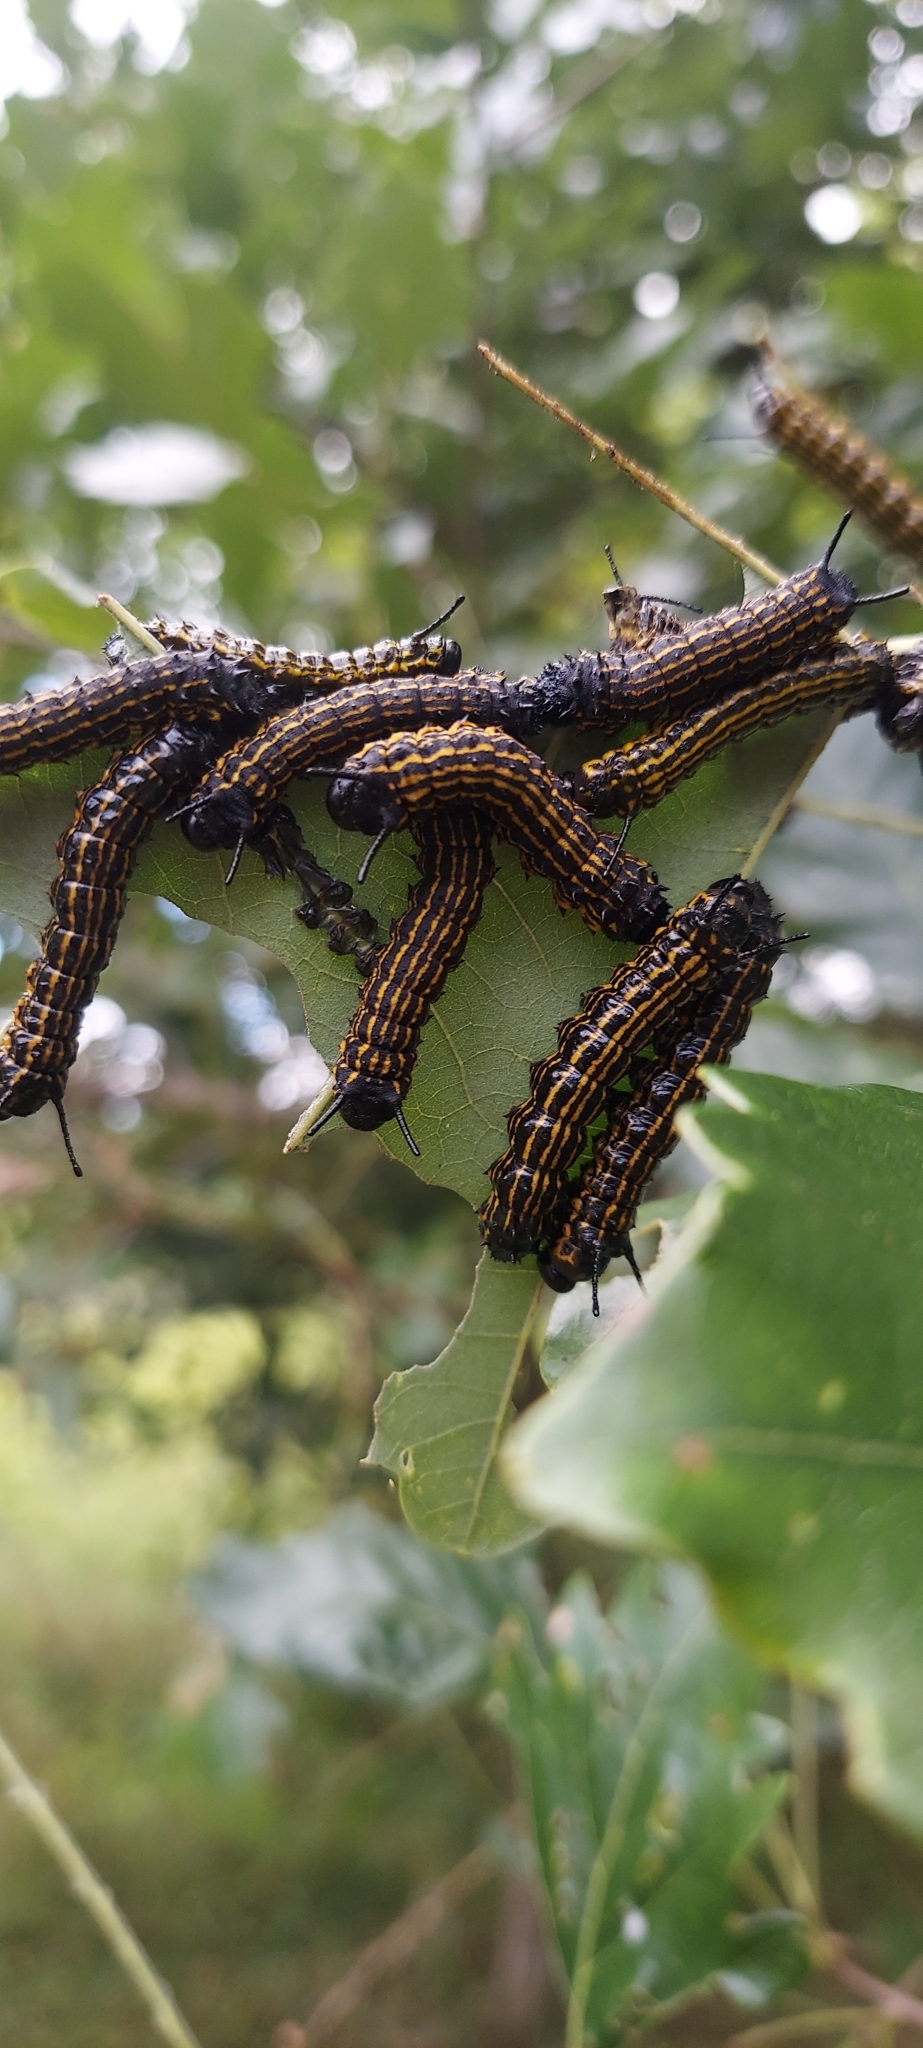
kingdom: Animalia
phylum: Arthropoda
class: Insecta
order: Lepidoptera
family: Saturniidae
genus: Anisota
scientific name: Anisota senatoria
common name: Orange-striped oakworm moth
